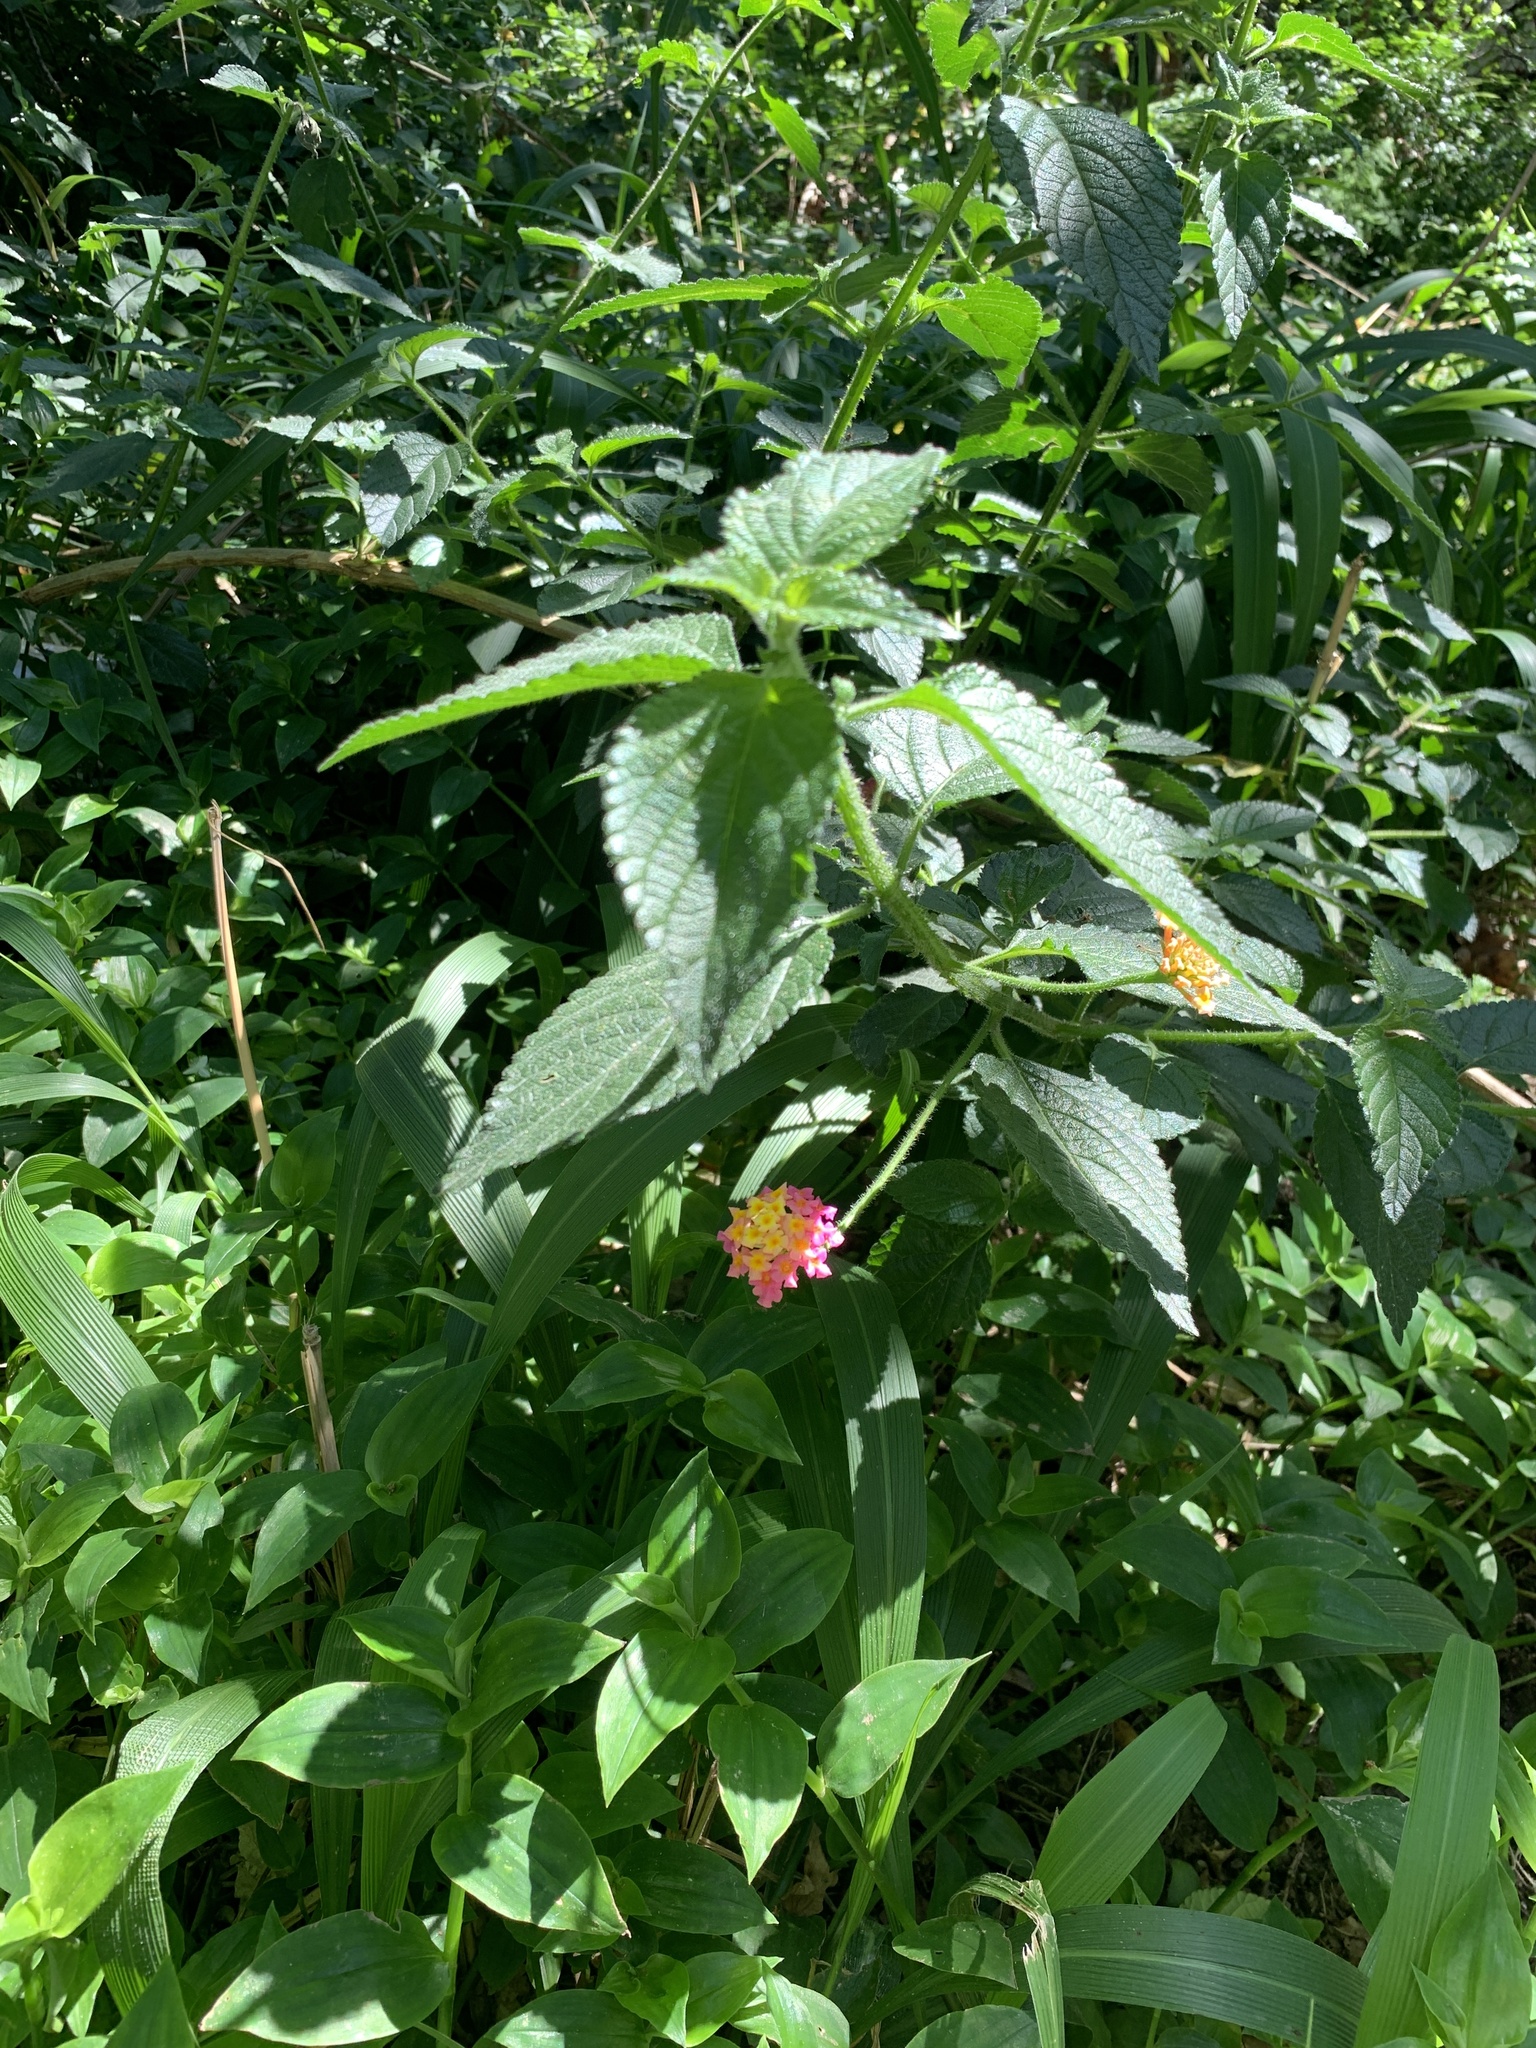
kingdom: Plantae
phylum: Tracheophyta
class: Magnoliopsida
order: Lamiales
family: Verbenaceae
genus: Lantana
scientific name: Lantana camara
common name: Lantana
